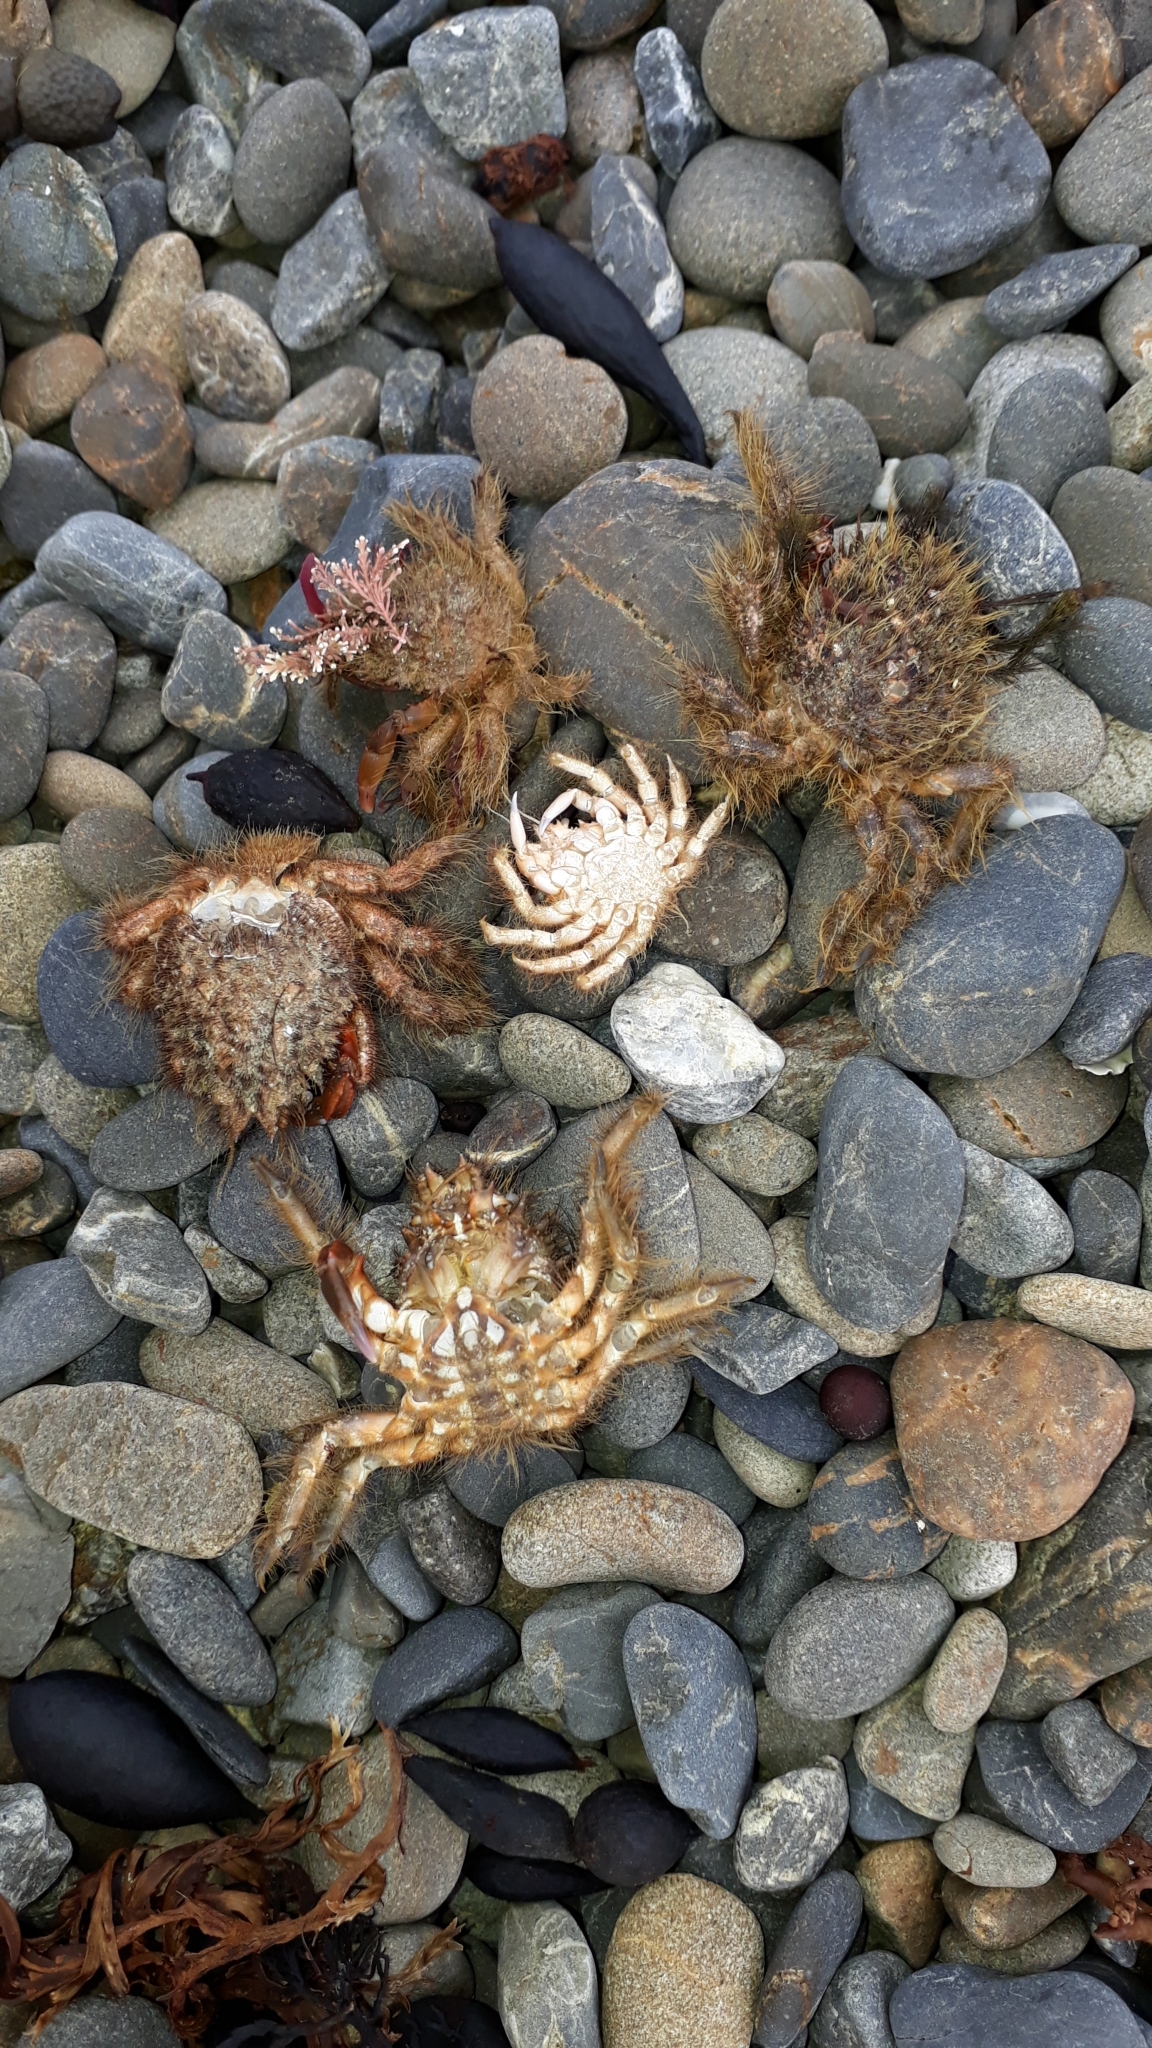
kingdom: Animalia
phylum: Arthropoda
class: Malacostraca
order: Decapoda
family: Majidae
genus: Notomithrax
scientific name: Notomithrax ursus
